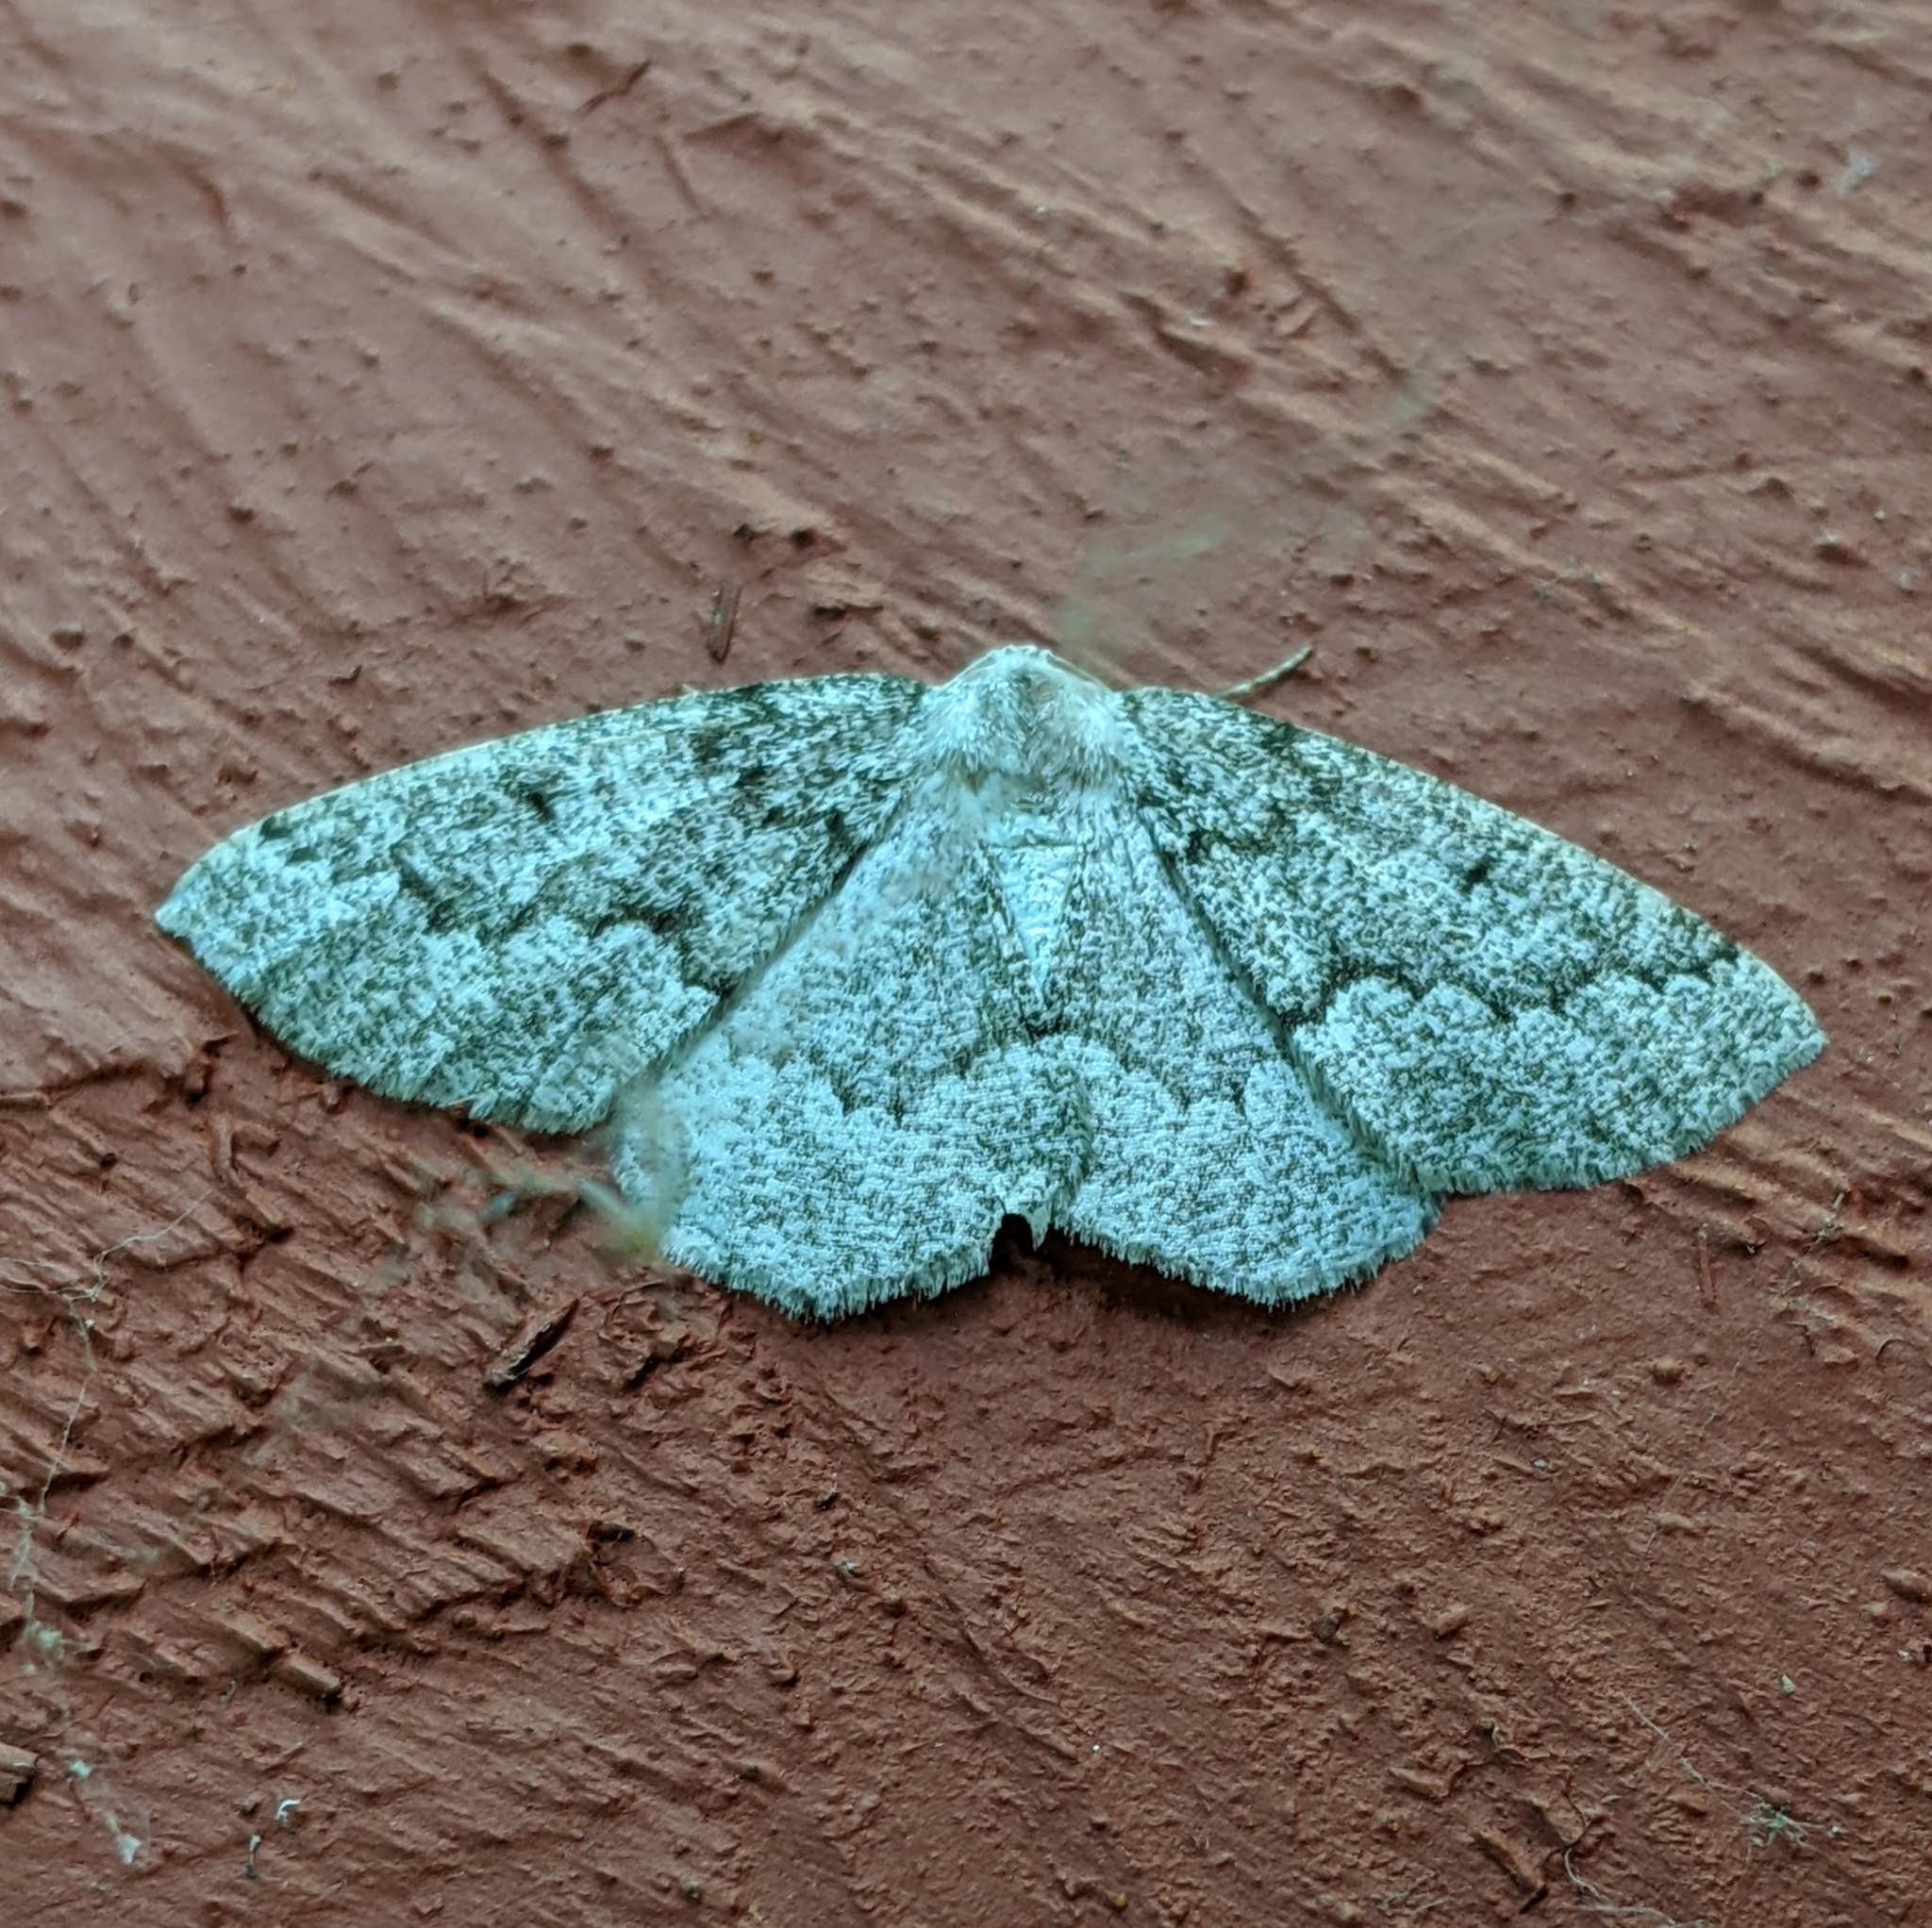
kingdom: Animalia
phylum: Arthropoda
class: Insecta
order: Lepidoptera
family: Geometridae
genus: Sabulodes
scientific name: Sabulodes
